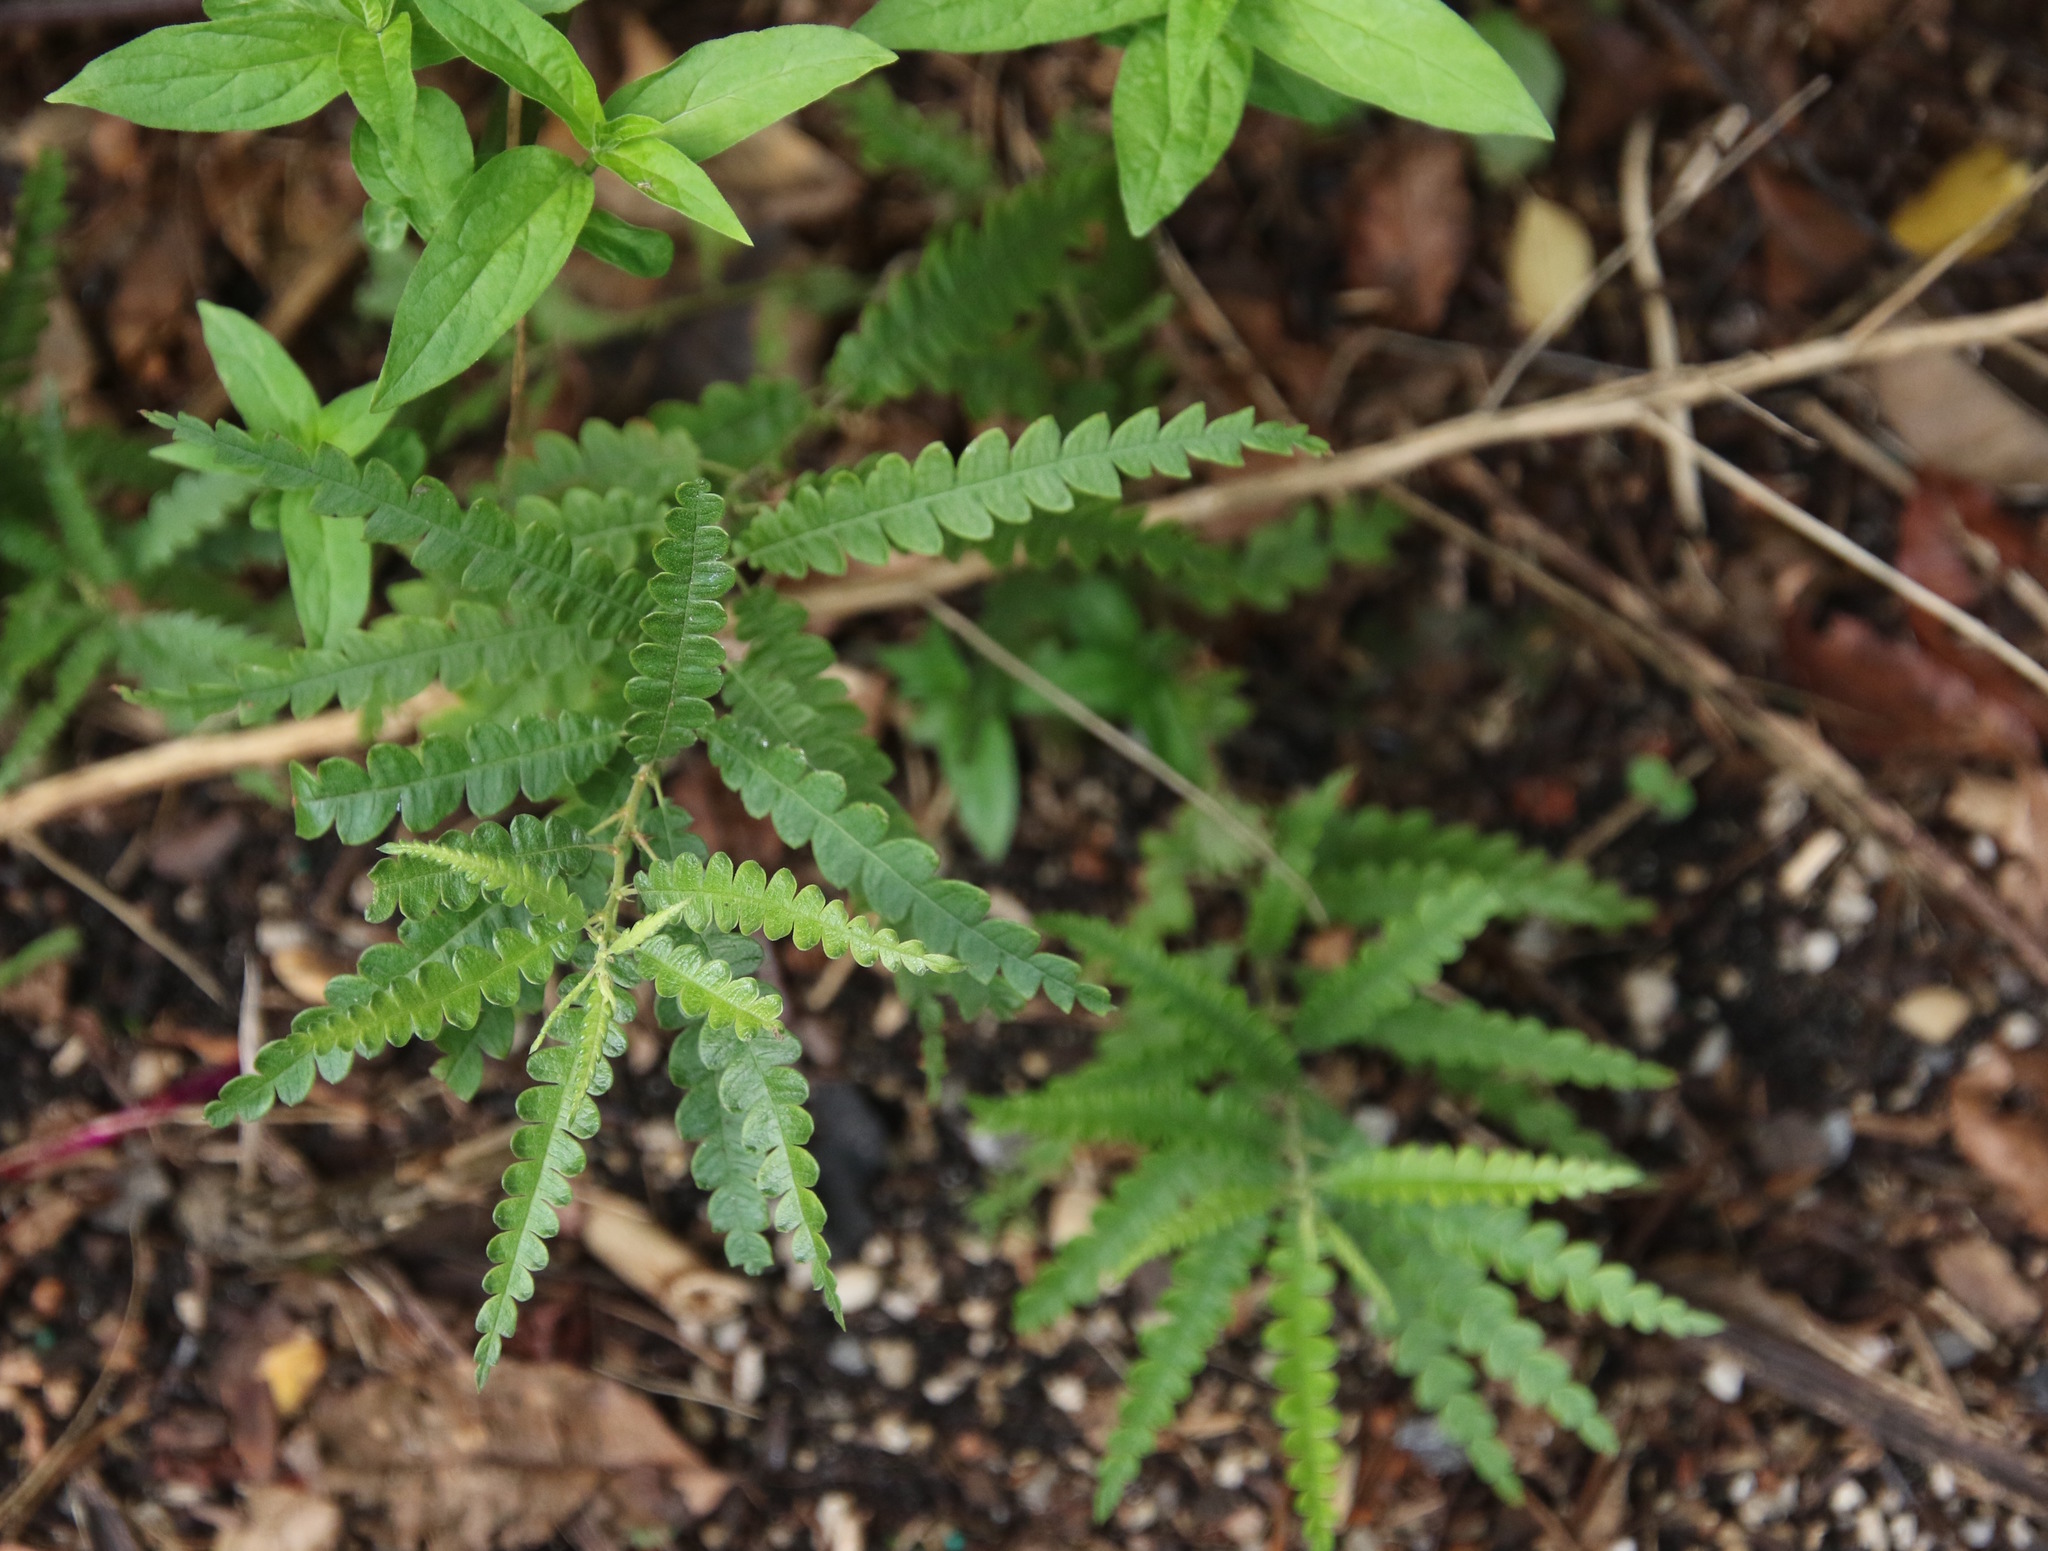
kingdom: Plantae
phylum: Tracheophyta
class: Magnoliopsida
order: Fagales
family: Myricaceae
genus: Comptonia
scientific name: Comptonia peregrina
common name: Sweet-fern
